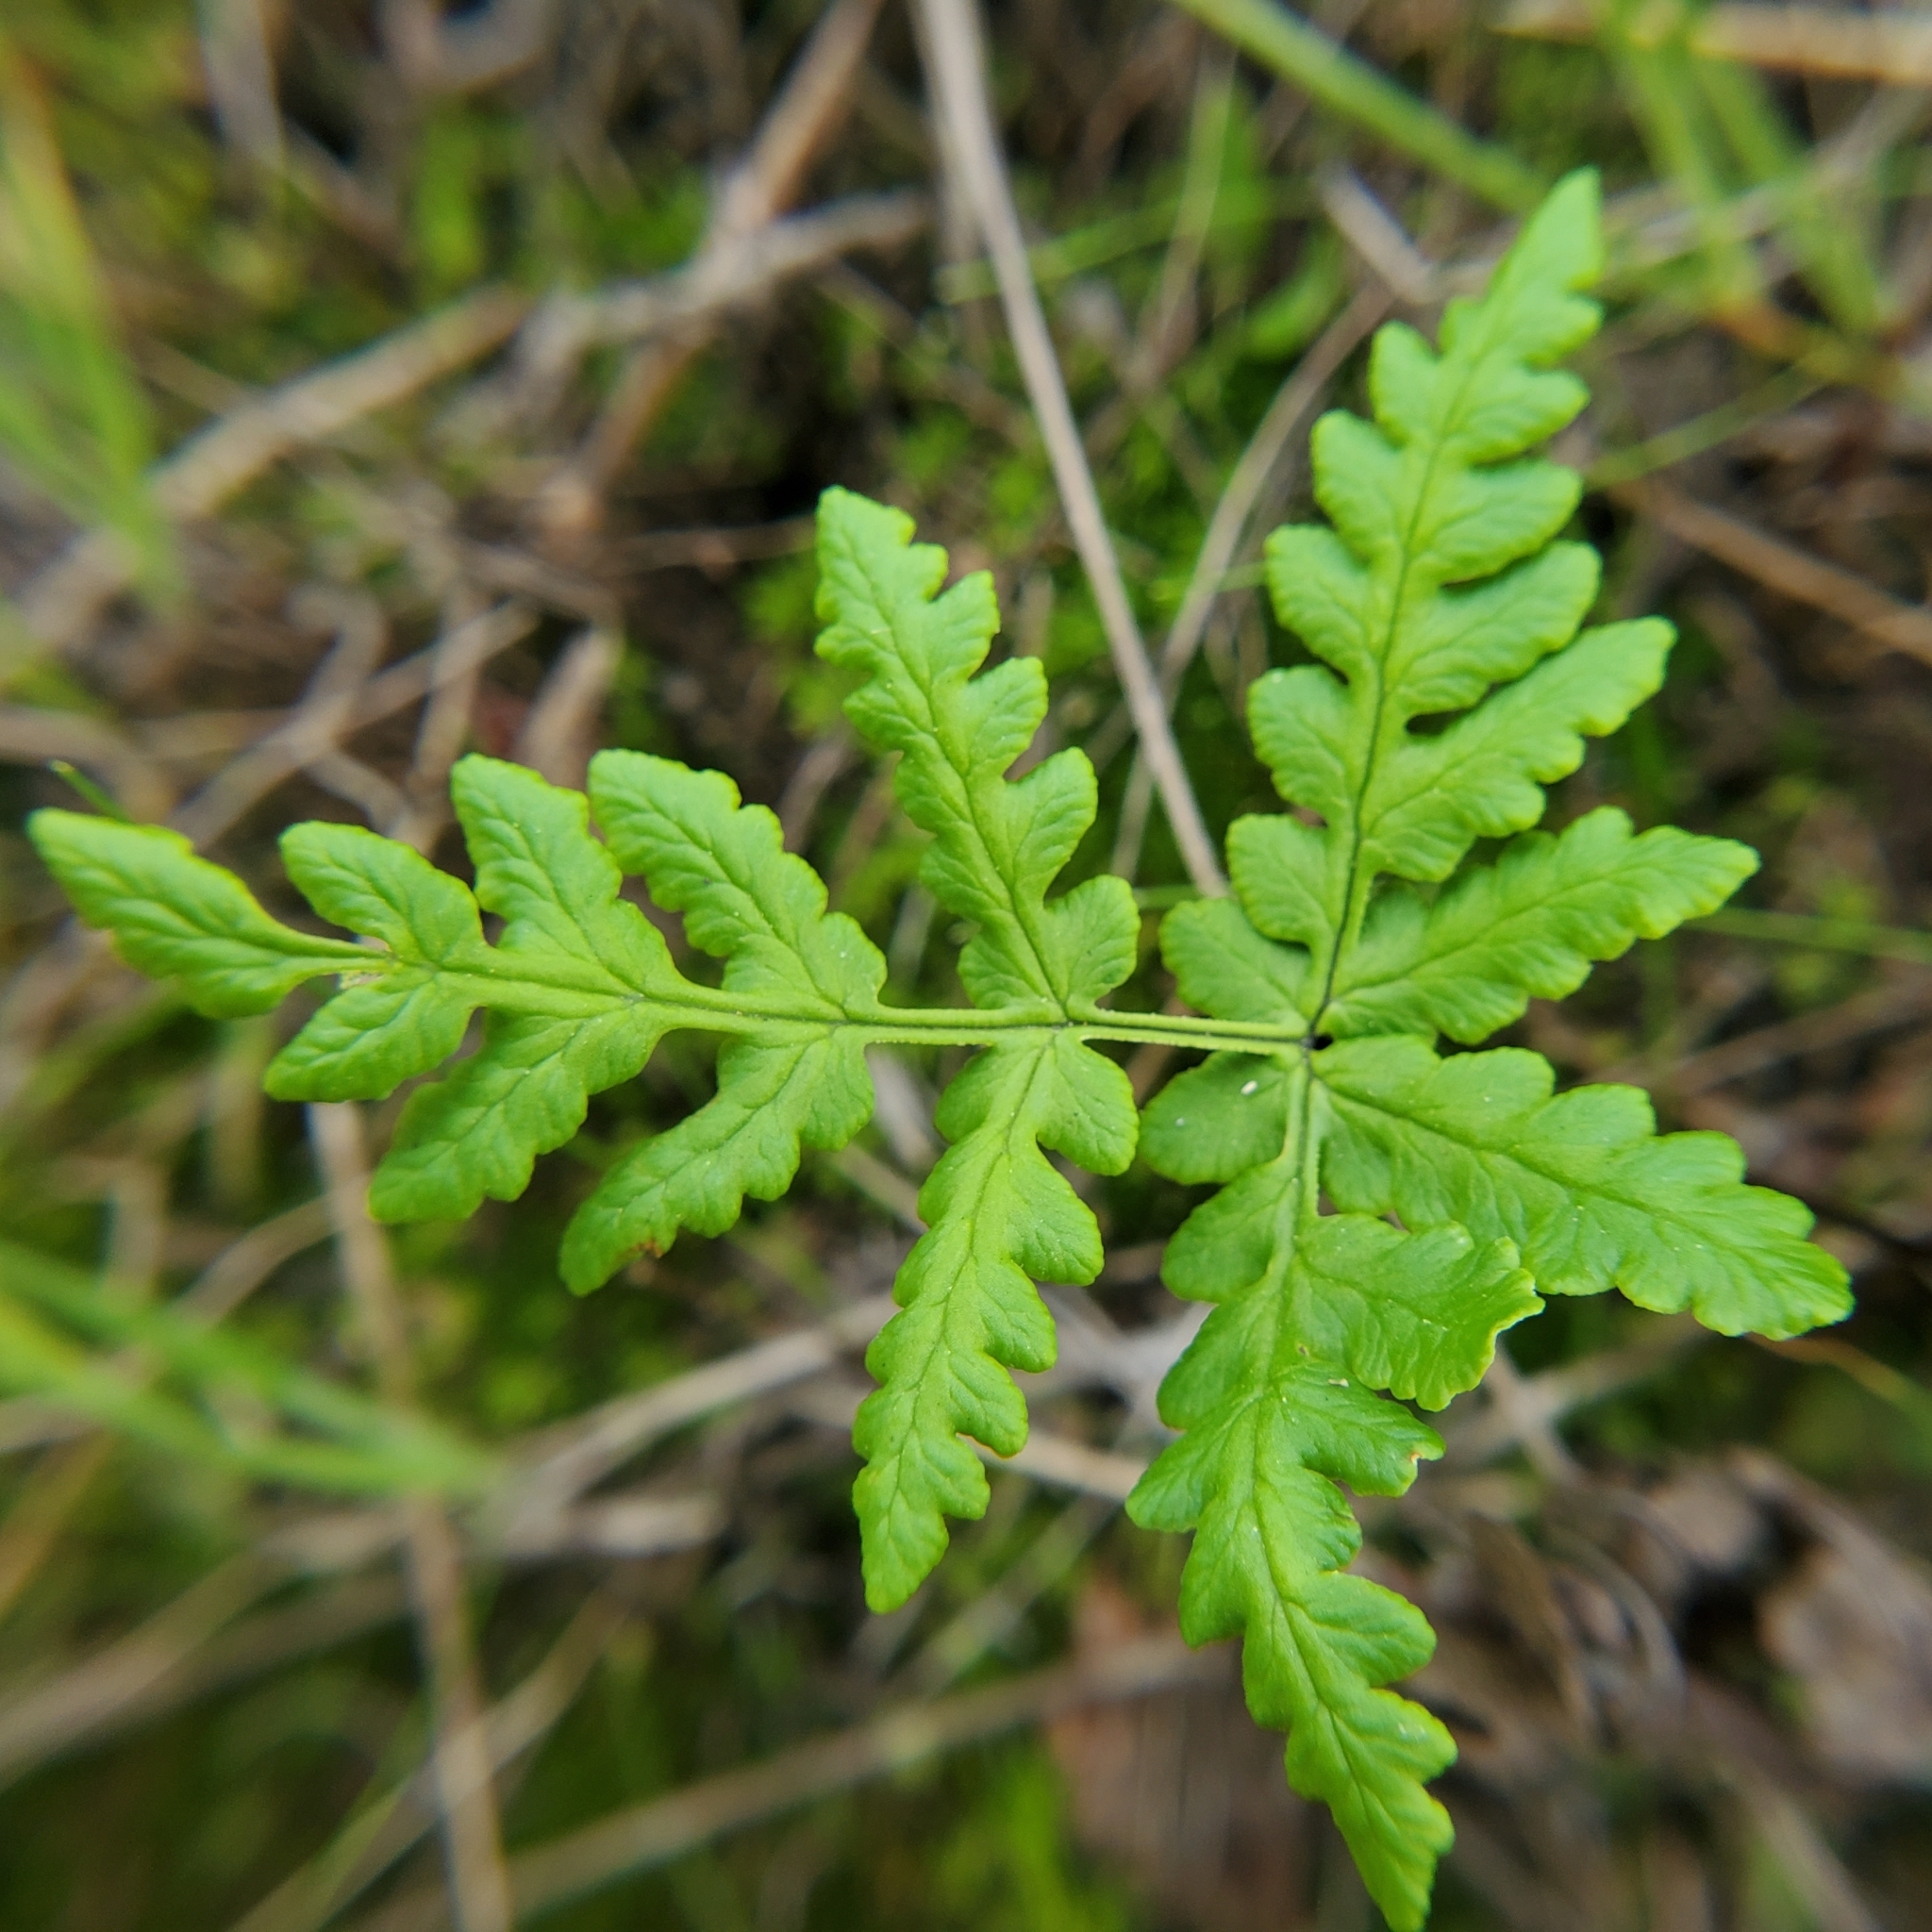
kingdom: Plantae
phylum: Tracheophyta
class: Polypodiopsida
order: Polypodiales
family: Pteridaceae
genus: Pentagramma
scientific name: Pentagramma triangularis
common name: Gold fern
